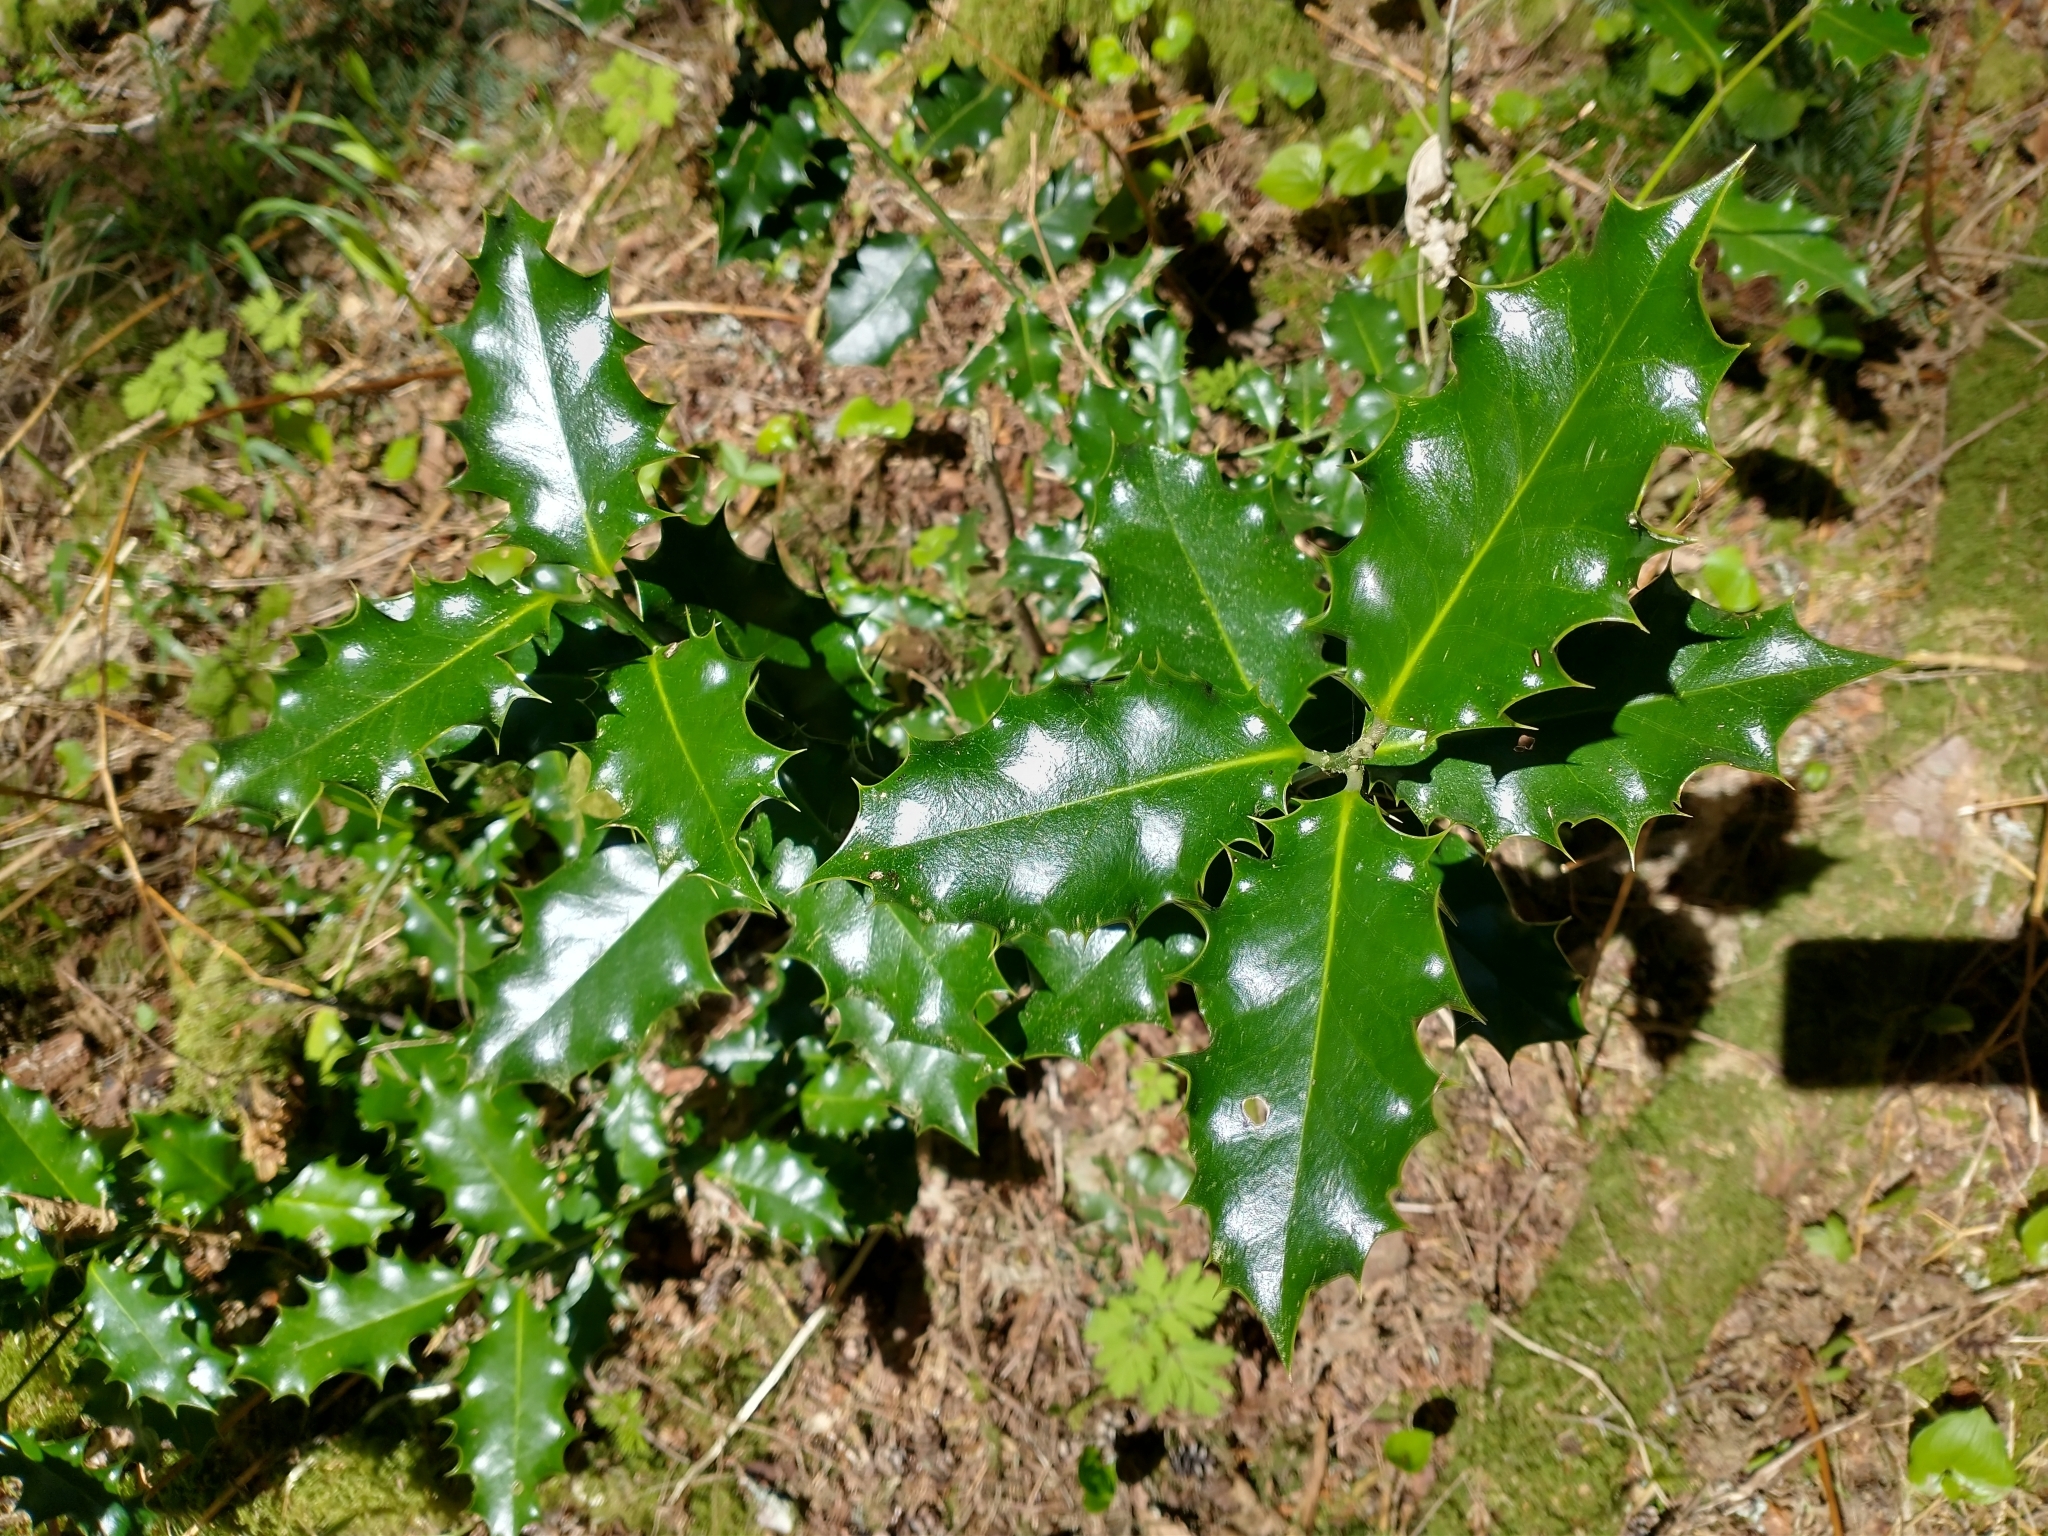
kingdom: Plantae
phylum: Tracheophyta
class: Magnoliopsida
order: Aquifoliales
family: Aquifoliaceae
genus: Ilex
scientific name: Ilex aquifolium
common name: English holly
